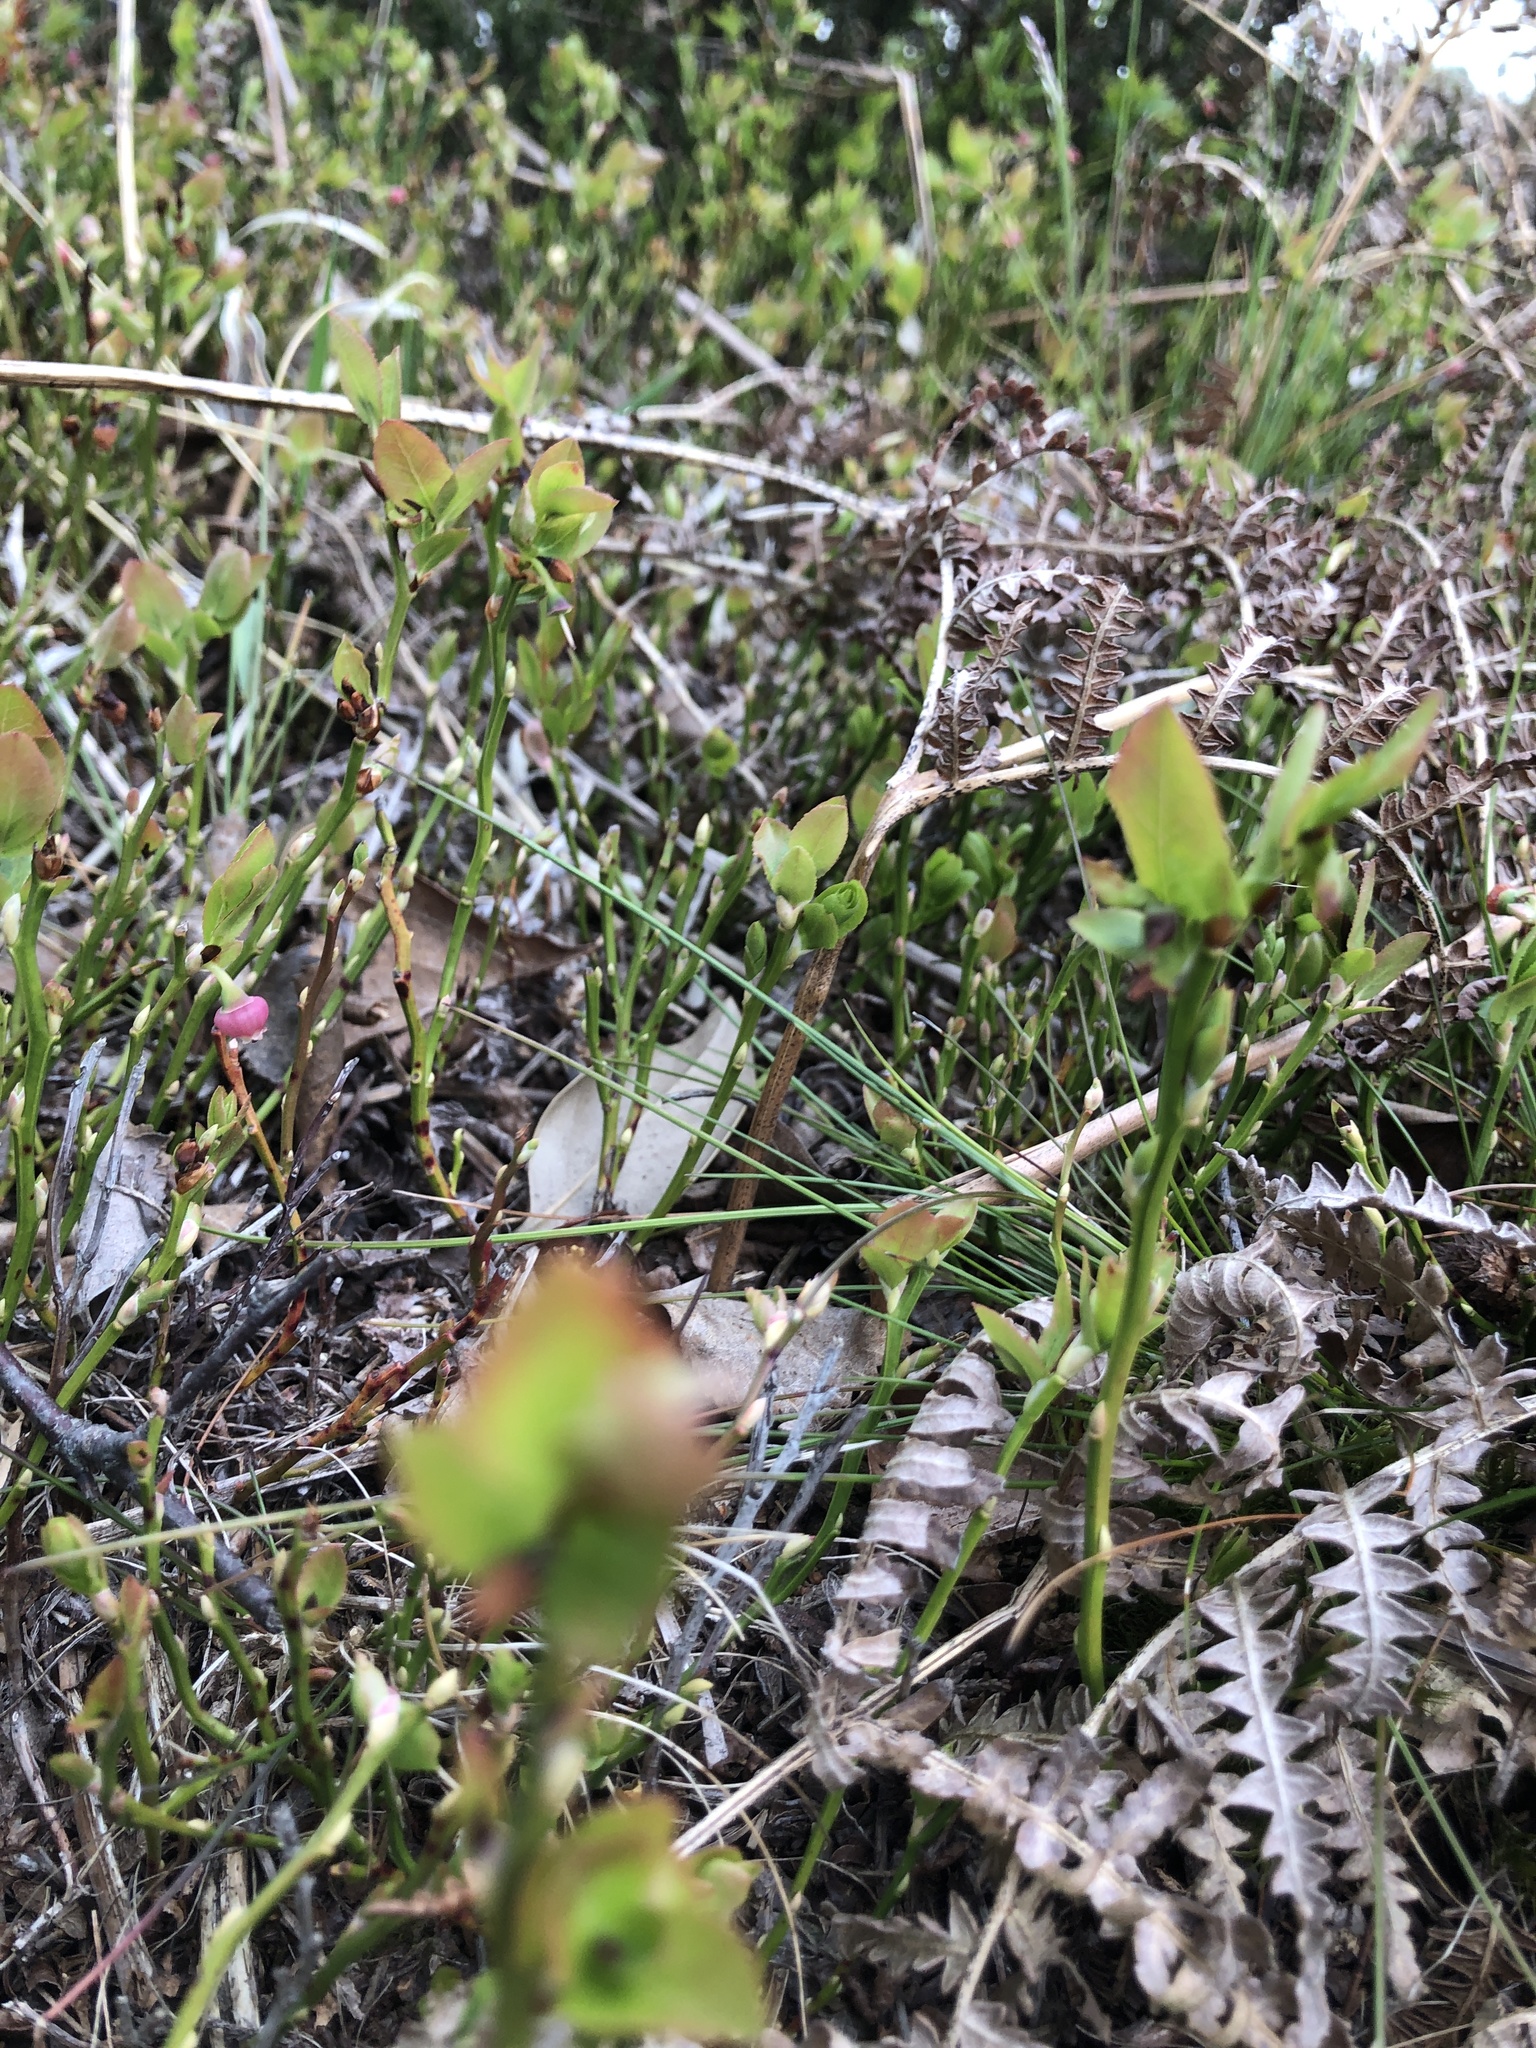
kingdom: Plantae
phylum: Tracheophyta
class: Magnoliopsida
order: Ericales
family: Ericaceae
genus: Vaccinium
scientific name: Vaccinium myrtillus
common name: Bilberry
